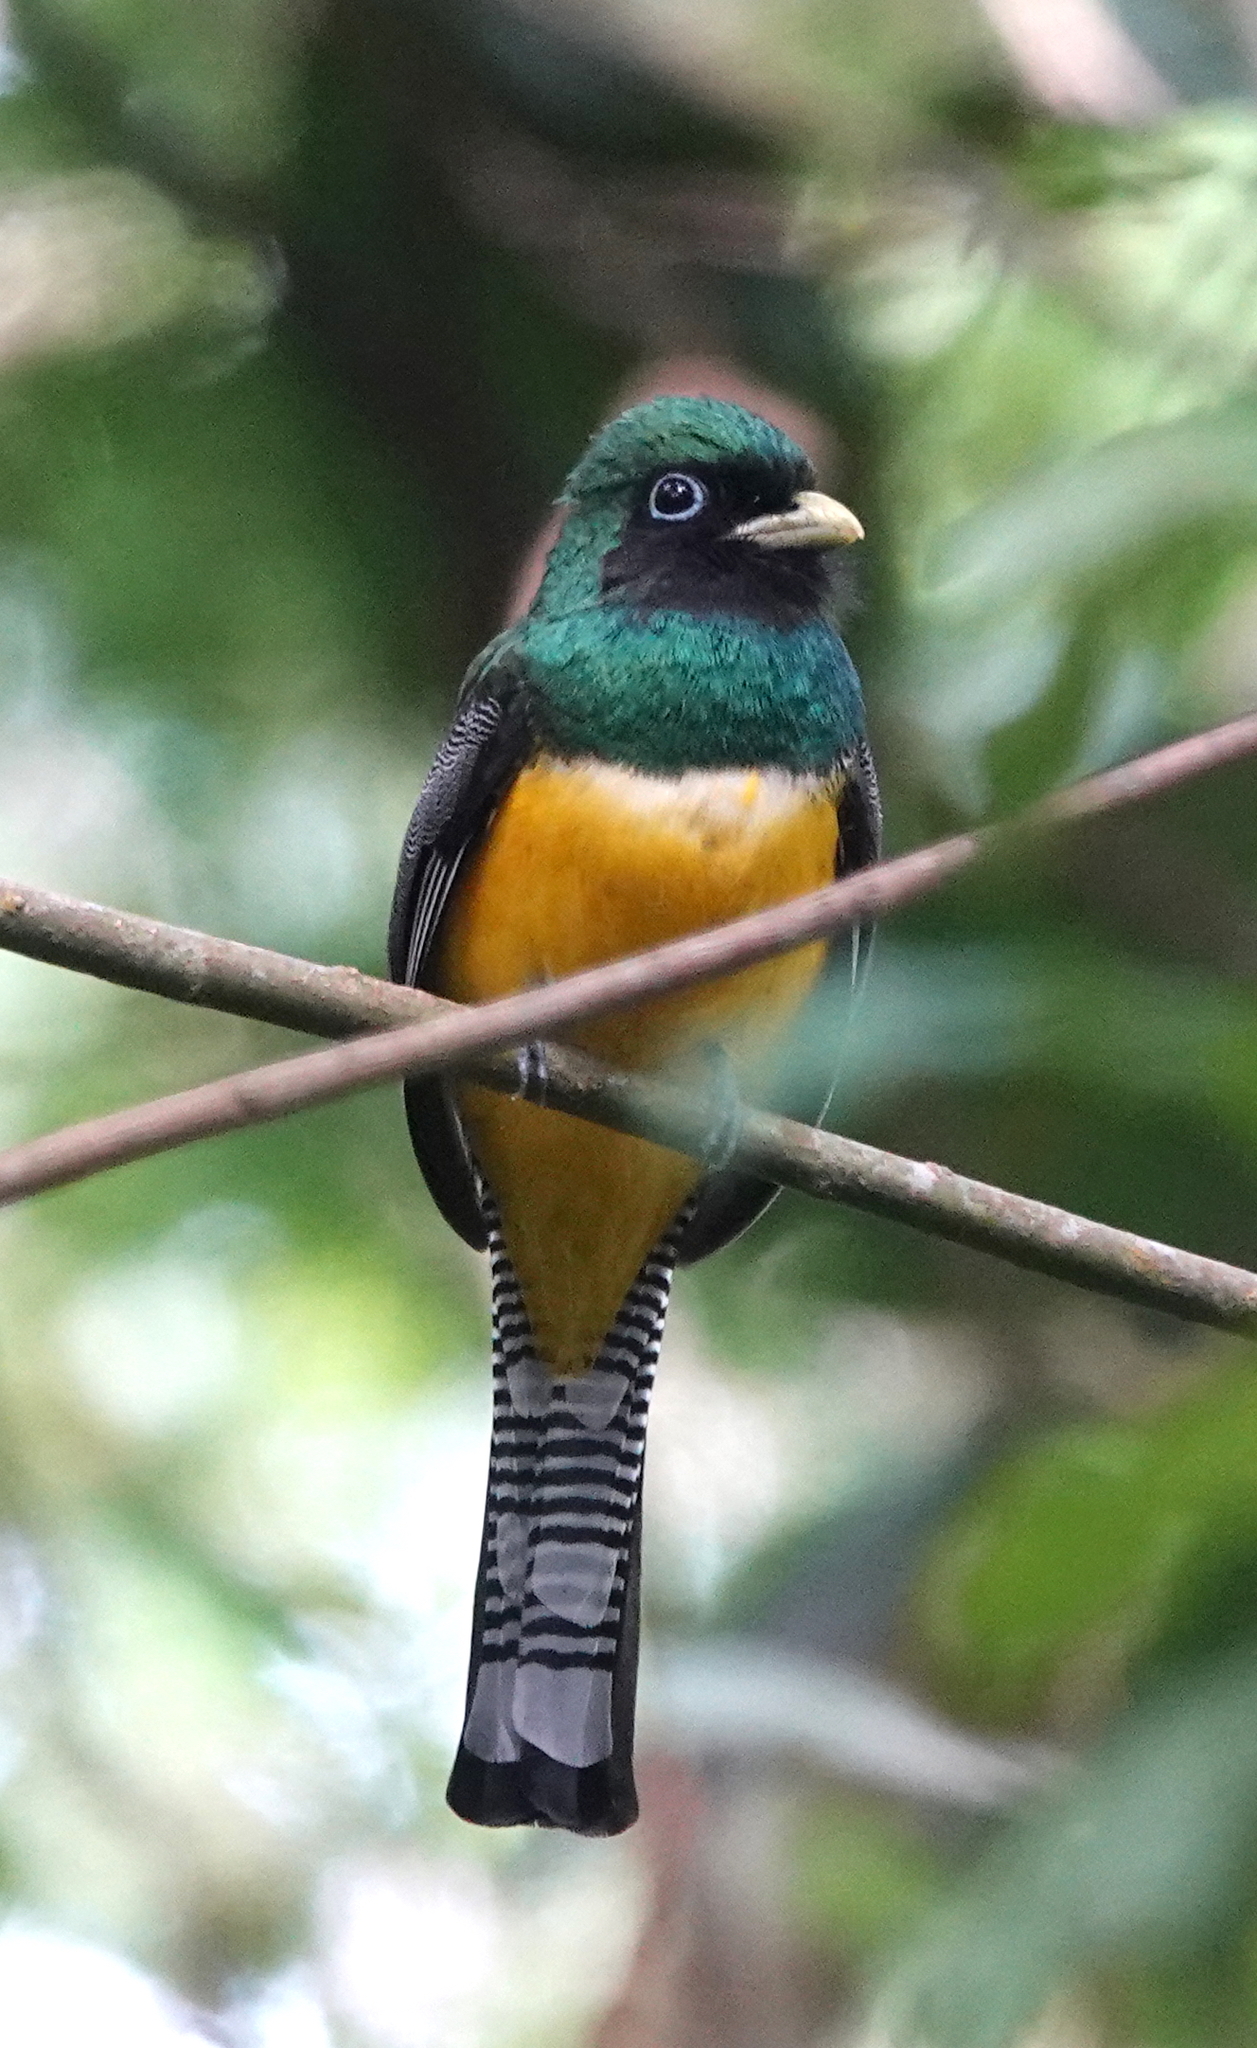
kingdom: Animalia
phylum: Chordata
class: Aves
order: Trogoniformes
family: Trogonidae
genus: Trogon
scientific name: Trogon rufus
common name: Black-throated trogon
